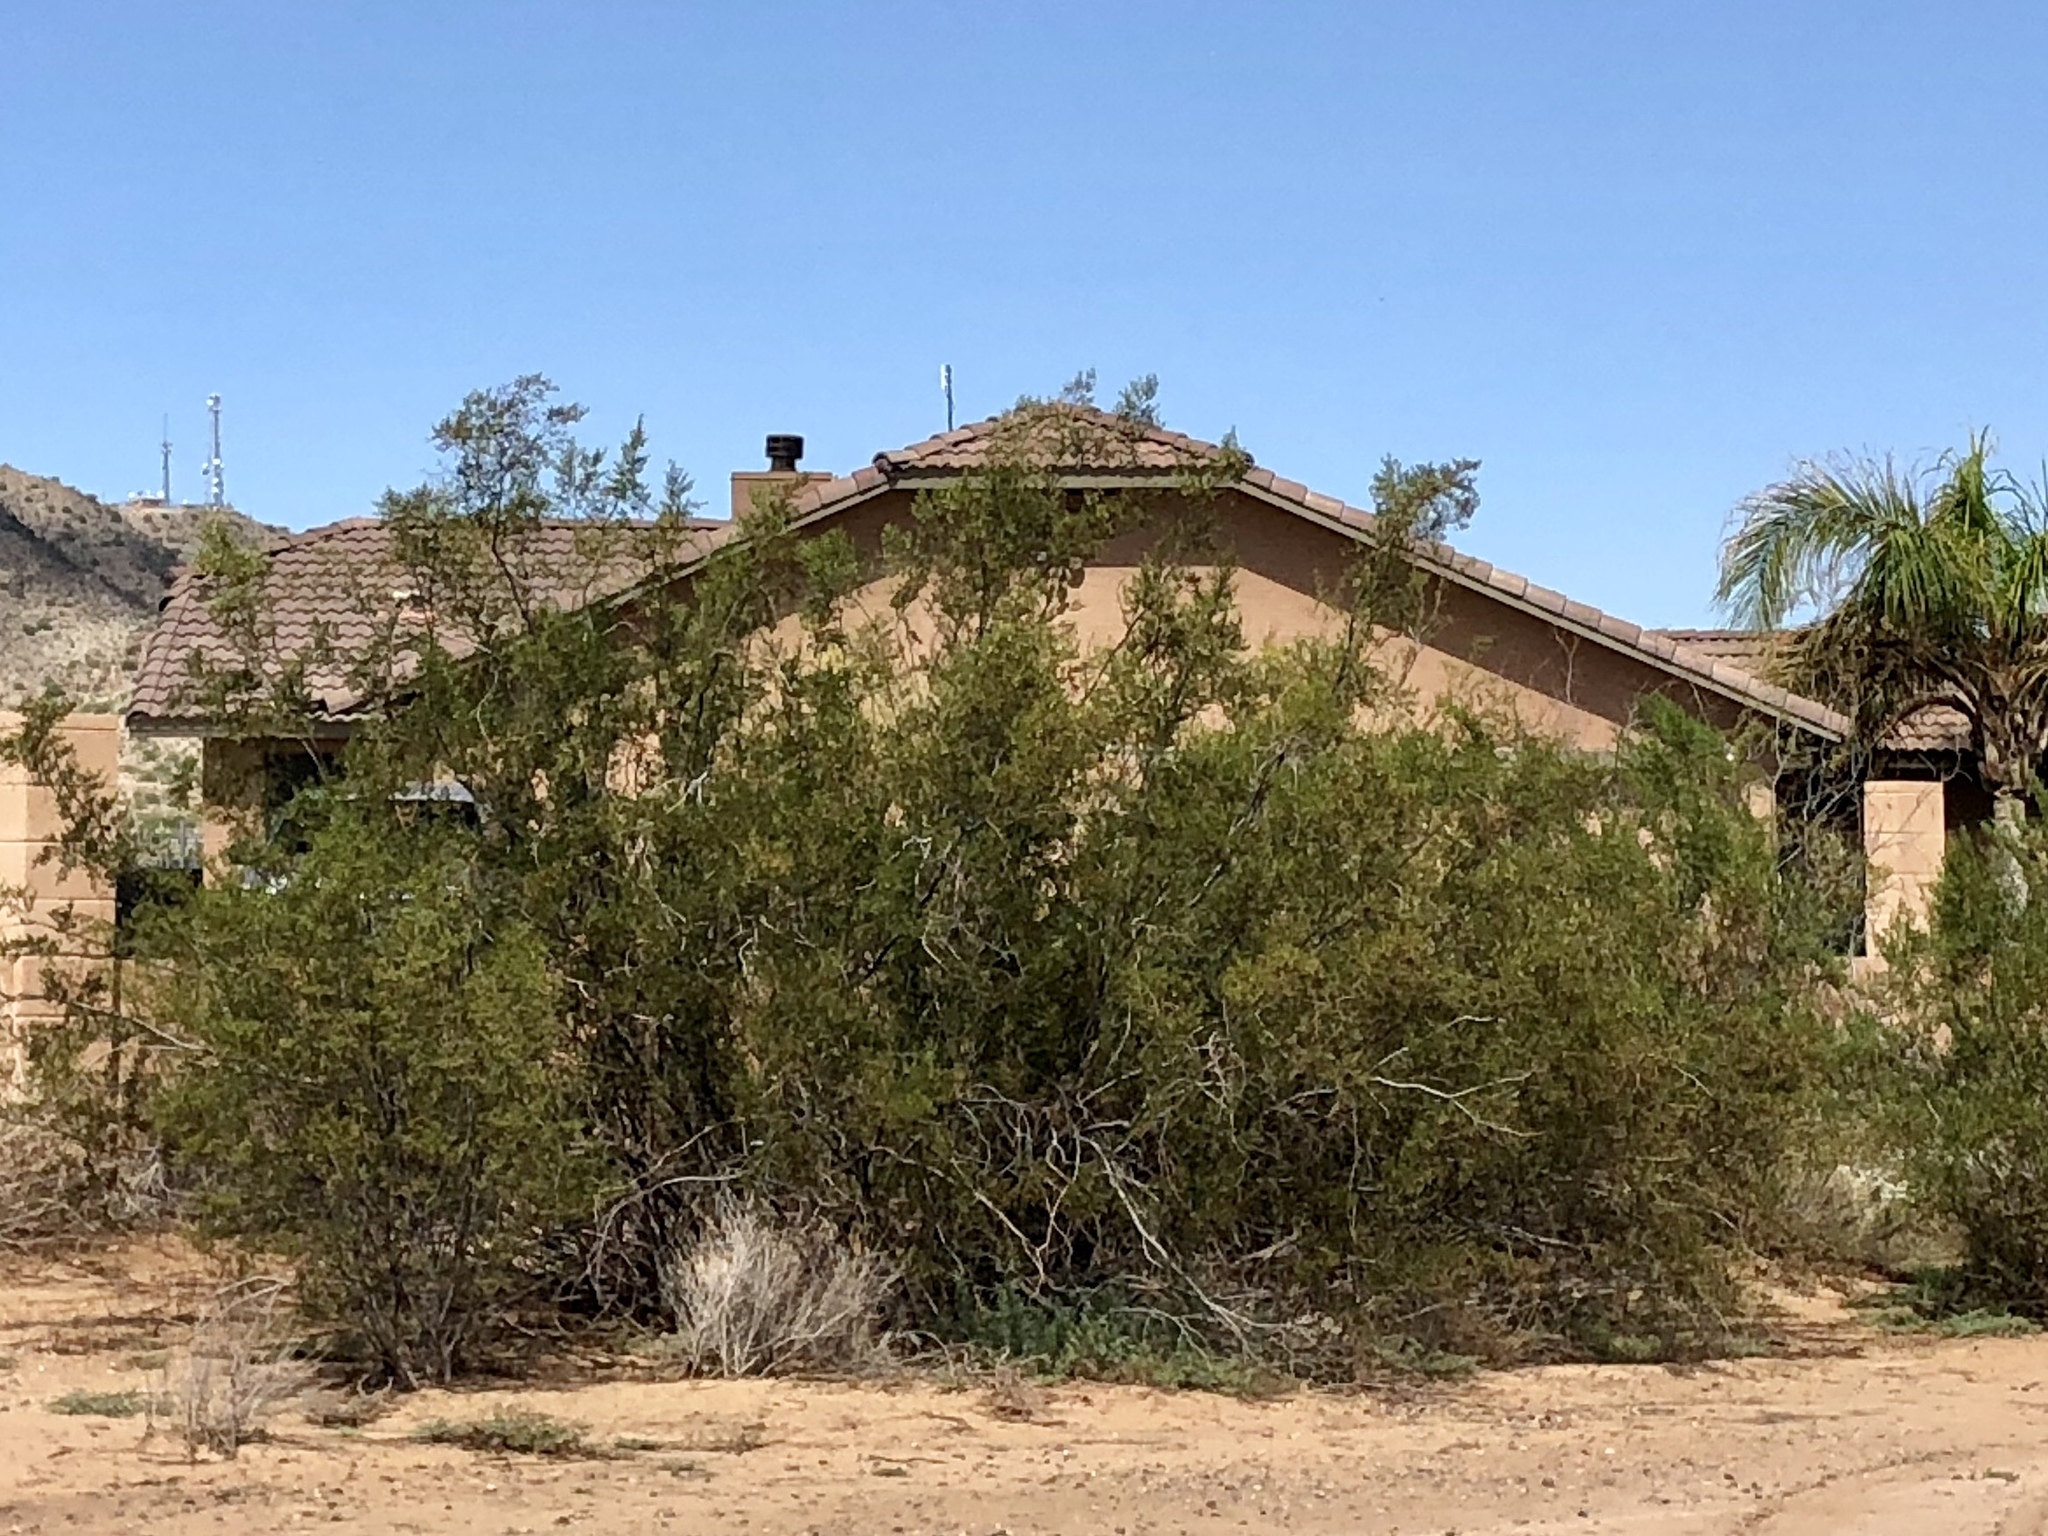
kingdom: Plantae
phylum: Tracheophyta
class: Magnoliopsida
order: Zygophyllales
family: Zygophyllaceae
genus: Larrea
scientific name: Larrea tridentata
